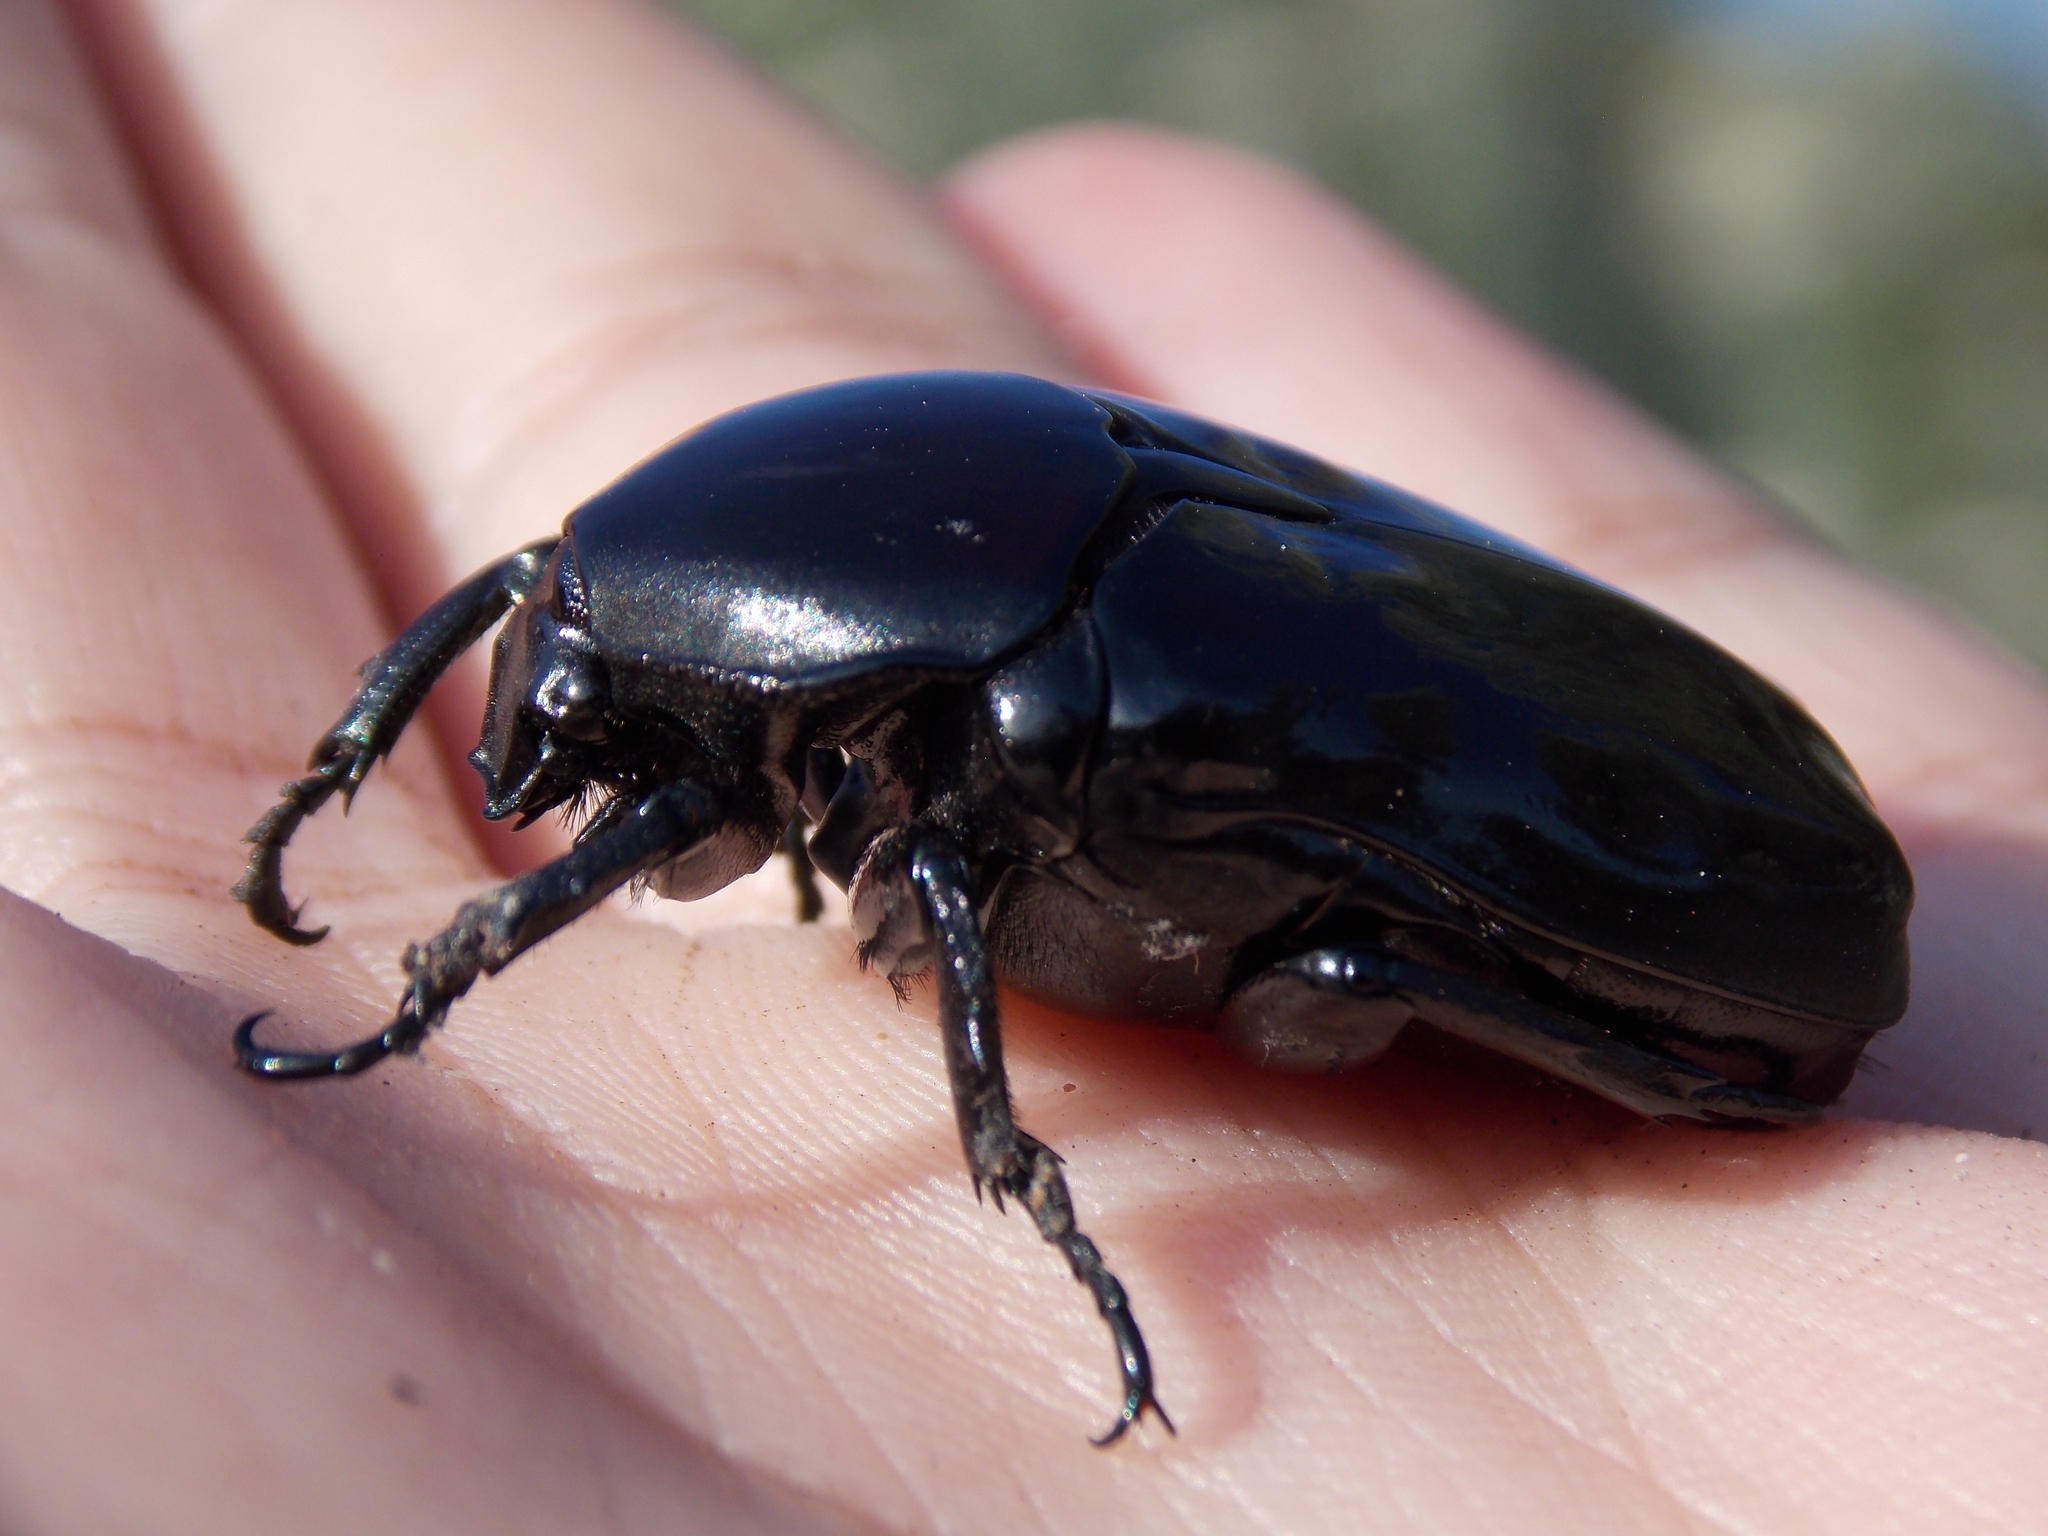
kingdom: Animalia
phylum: Arthropoda
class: Insecta
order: Coleoptera
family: Scarabaeidae
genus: Diplognatha
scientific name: Diplognatha gagates
